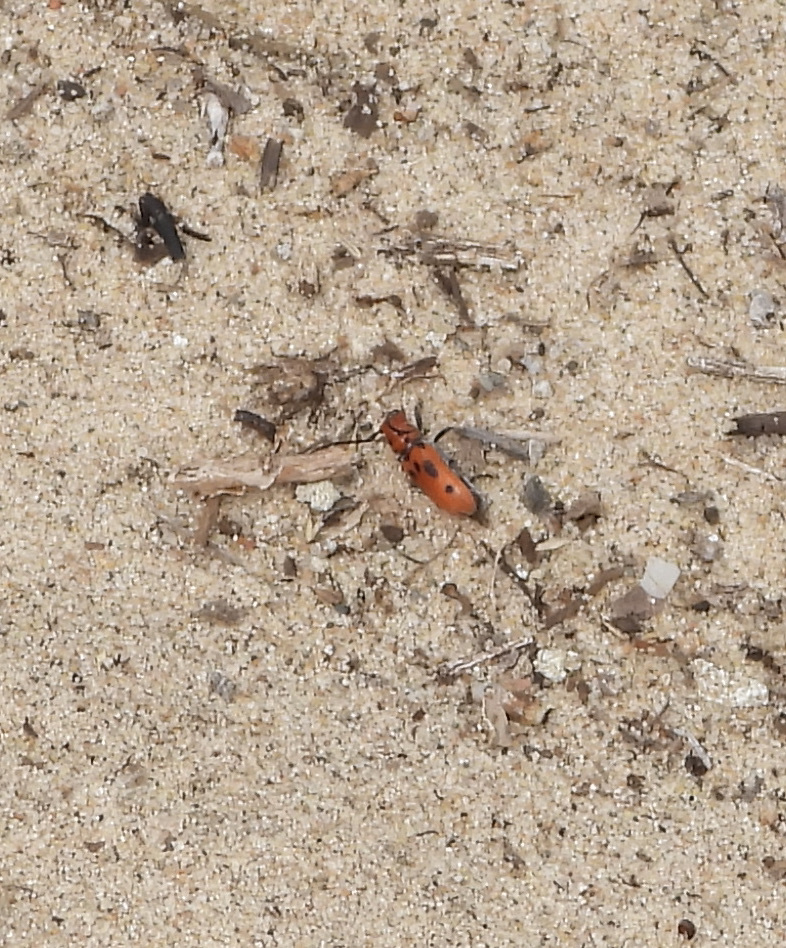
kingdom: Animalia
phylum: Arthropoda
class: Insecta
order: Coleoptera
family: Cerambycidae
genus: Tetraopes
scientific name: Tetraopes tetrophthalmus
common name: Red milkweed beetle
